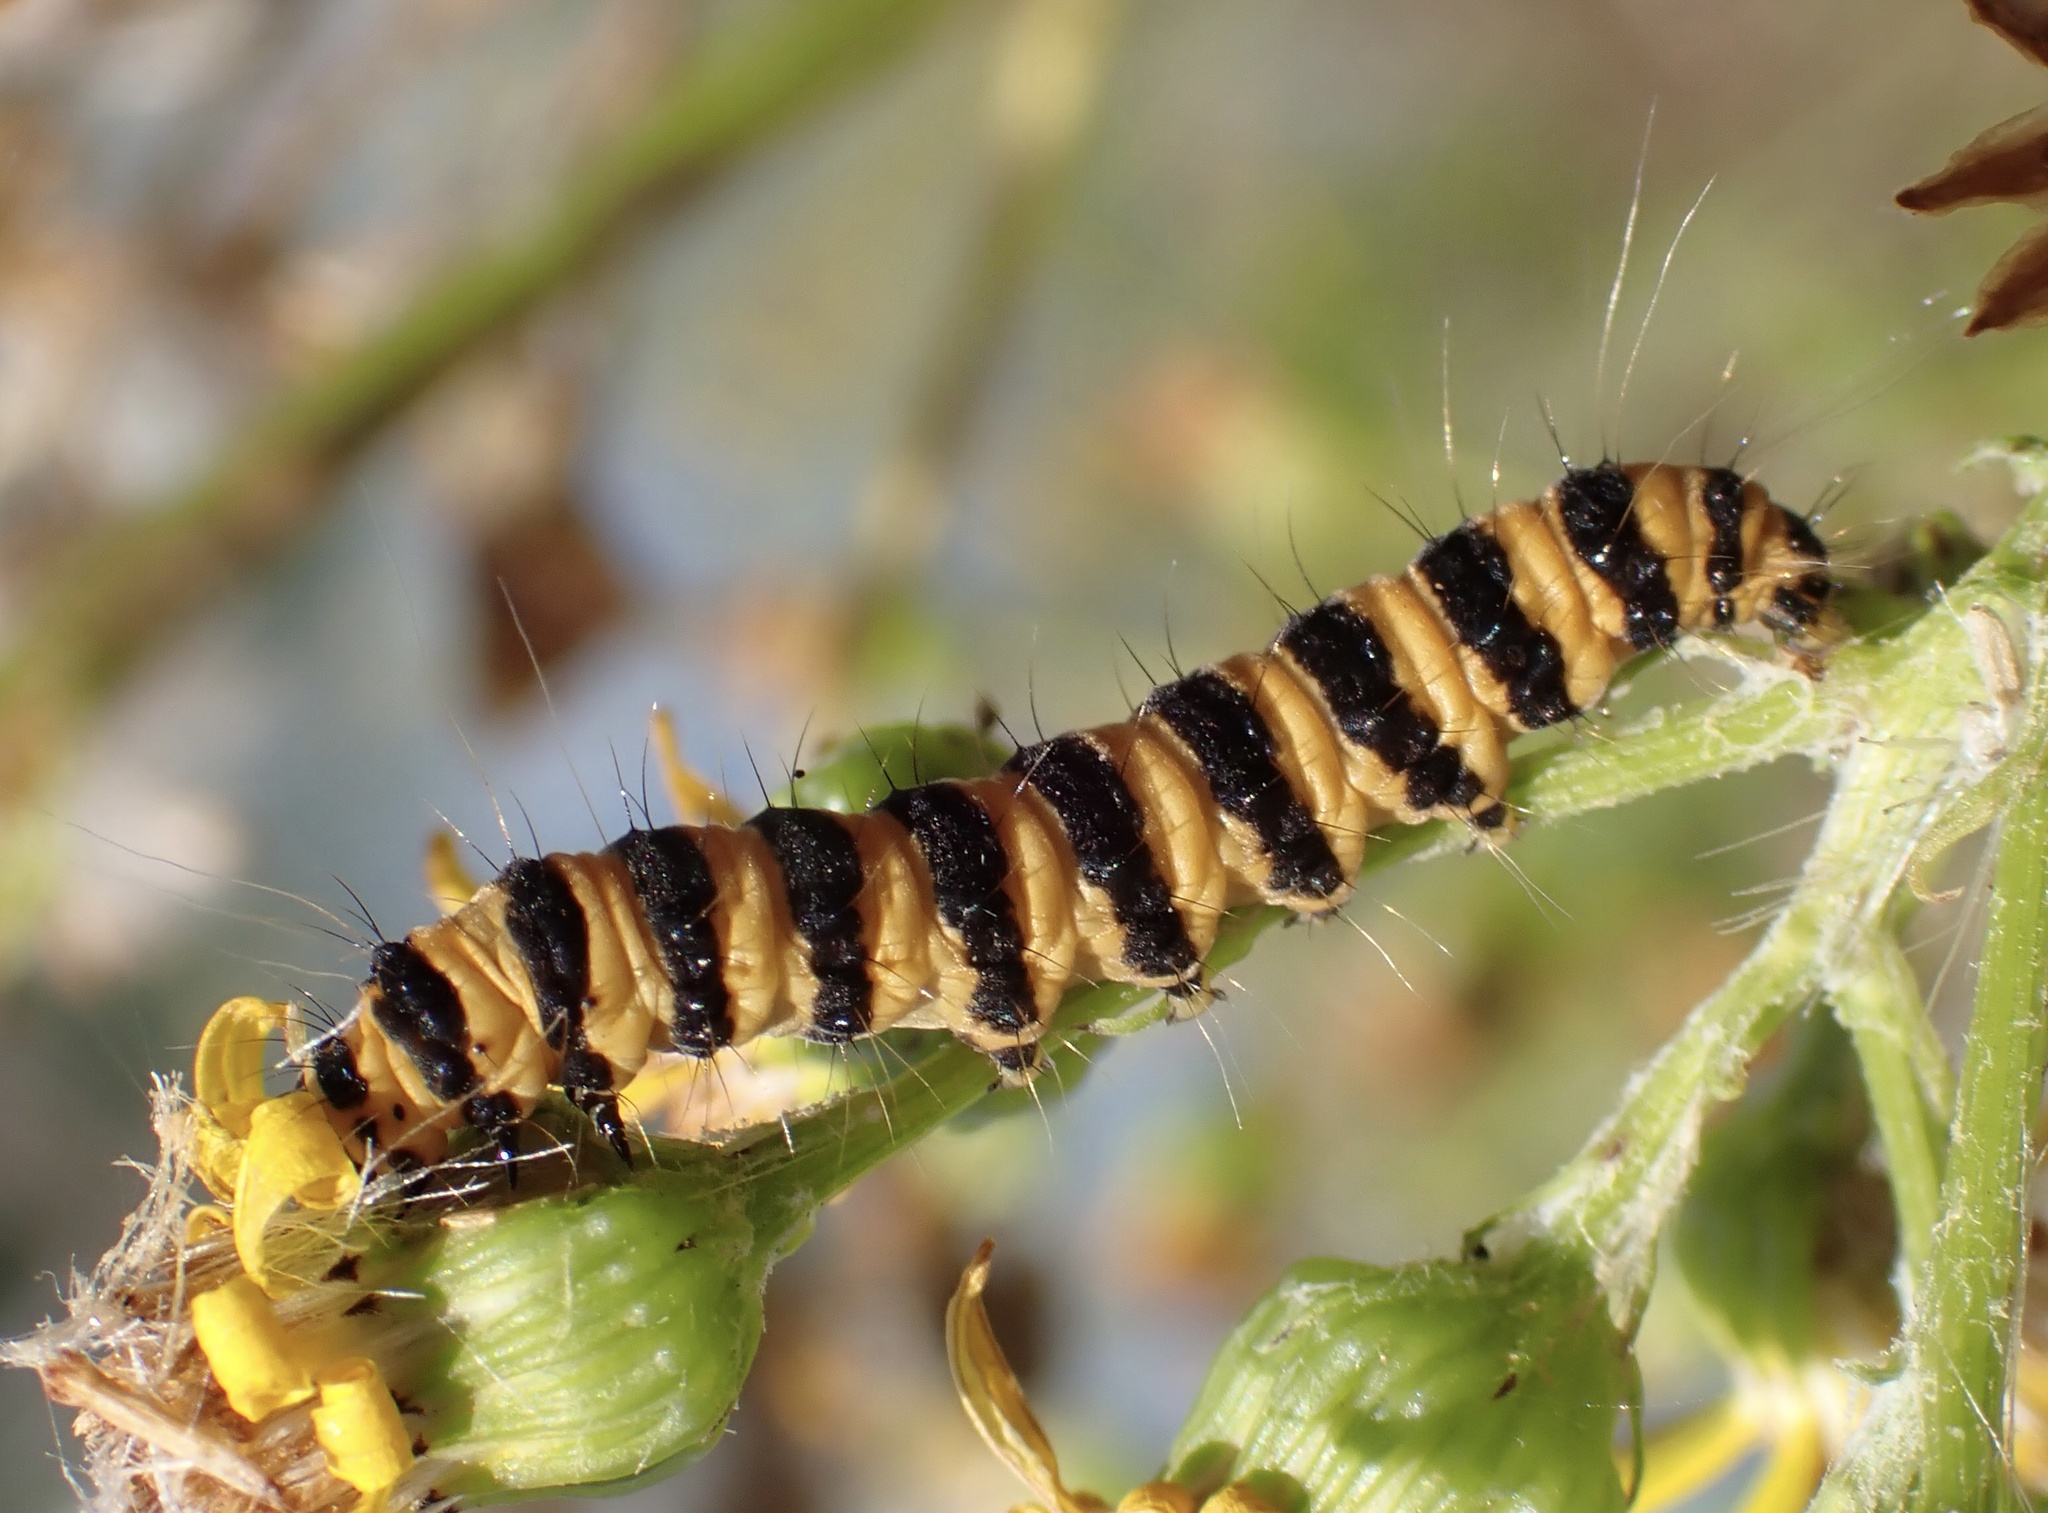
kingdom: Animalia
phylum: Arthropoda
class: Insecta
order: Lepidoptera
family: Erebidae
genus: Tyria
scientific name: Tyria jacobaeae
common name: Cinnabar
